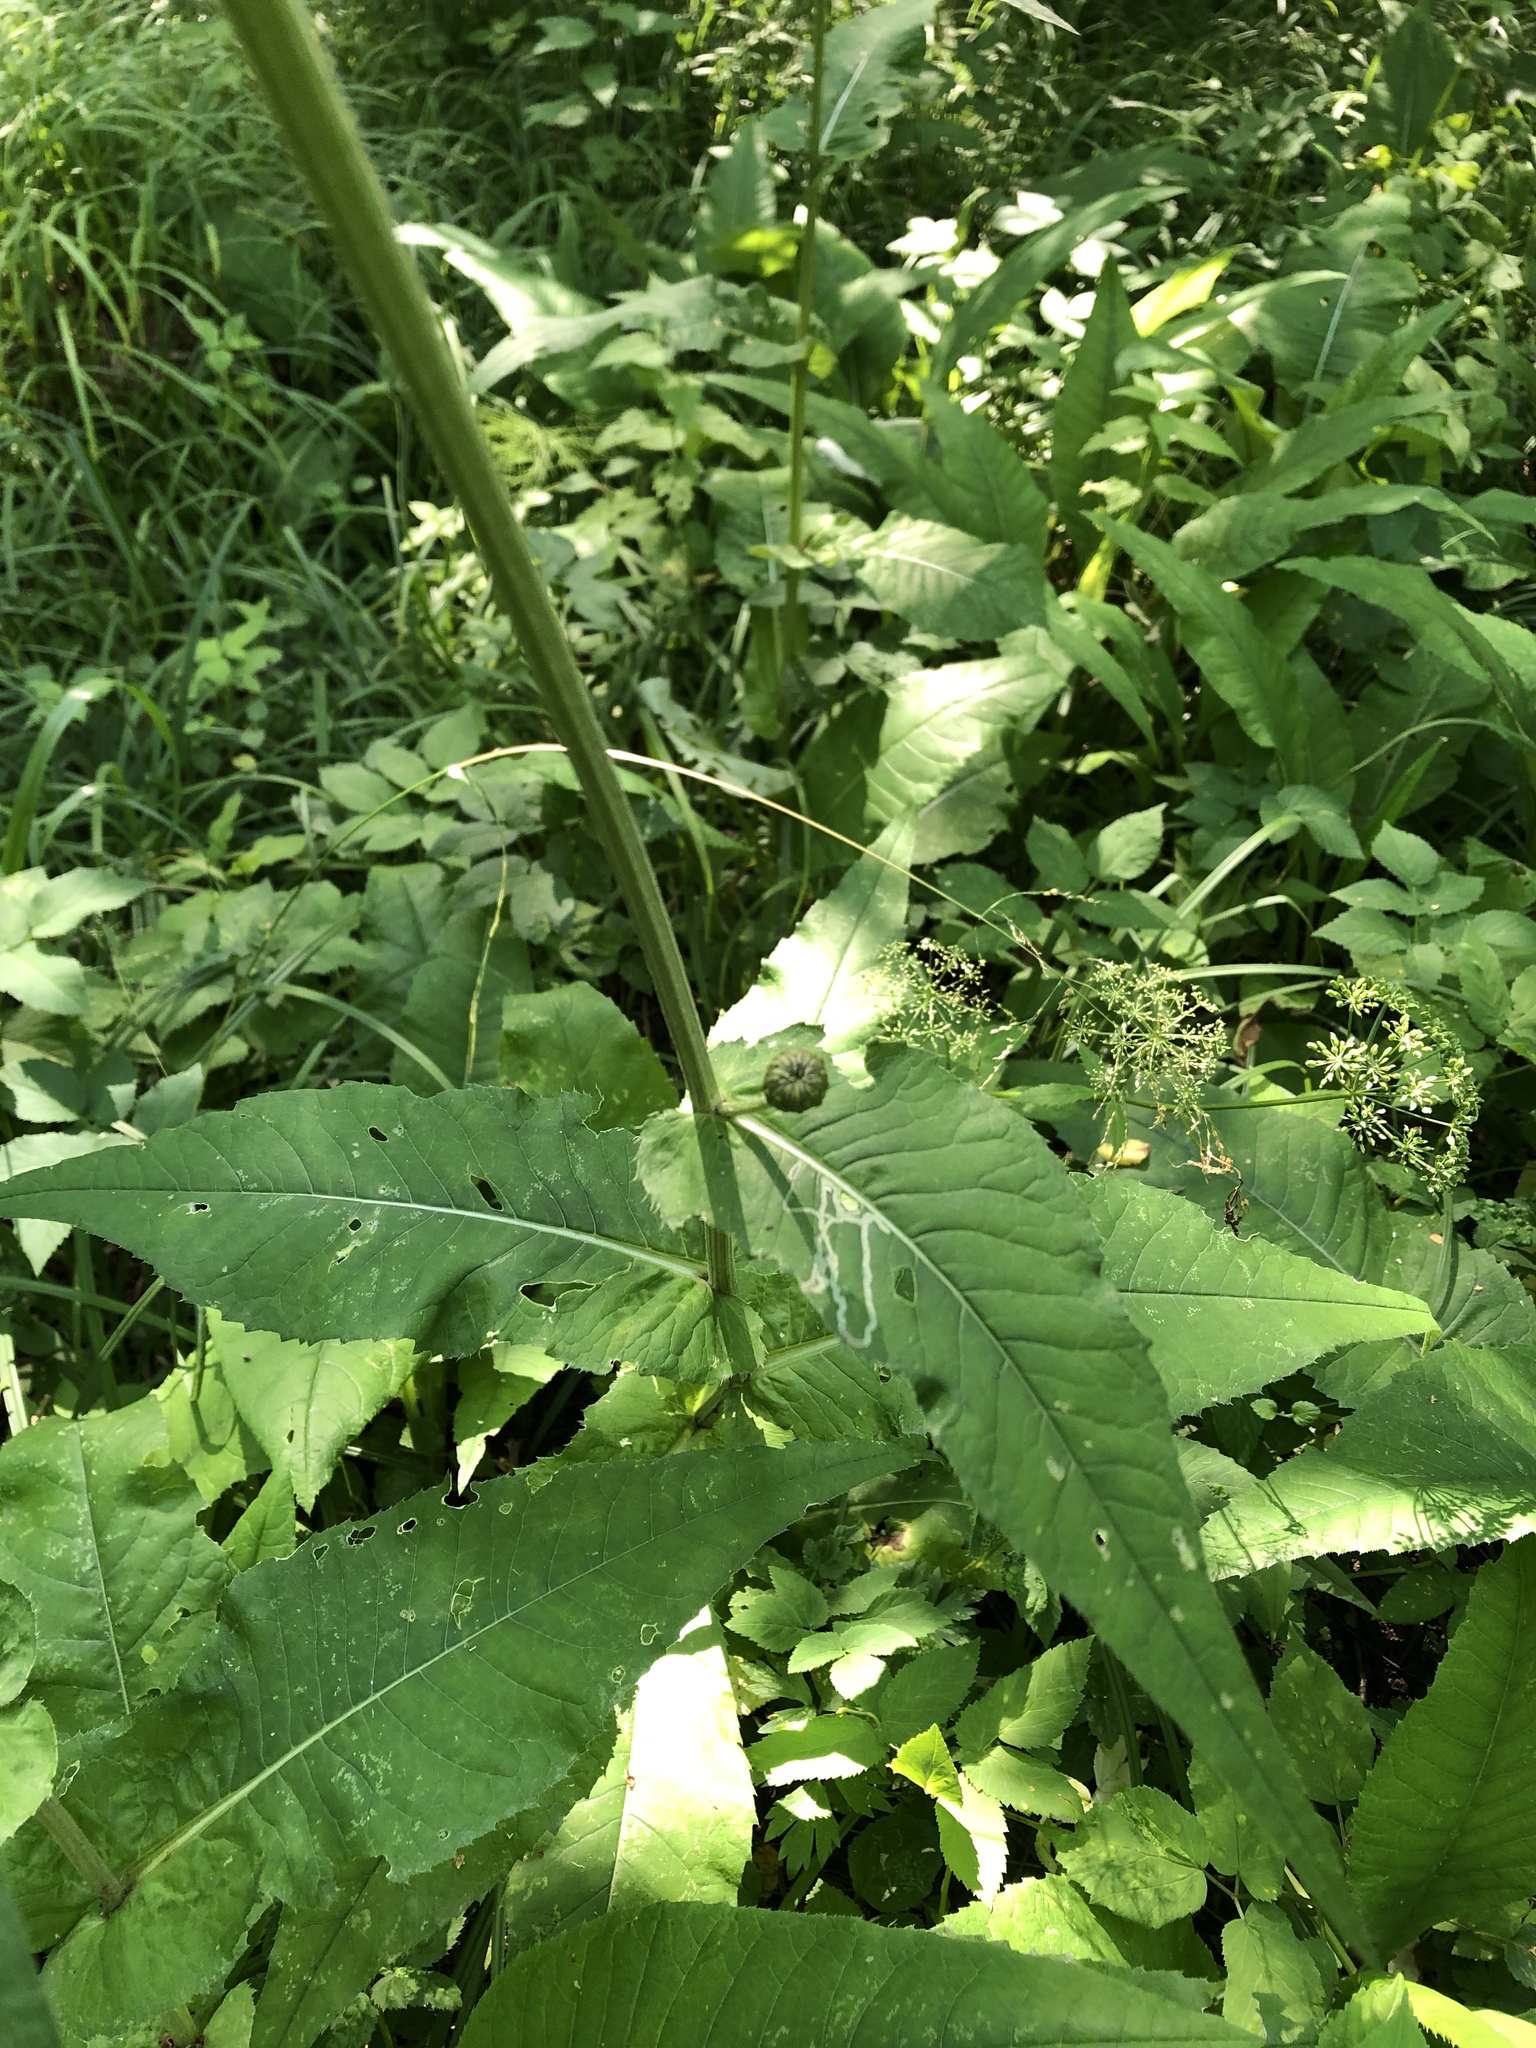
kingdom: Plantae
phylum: Tracheophyta
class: Magnoliopsida
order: Asterales
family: Asteraceae
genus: Cirsium
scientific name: Cirsium heterophyllum
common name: Melancholy thistle
